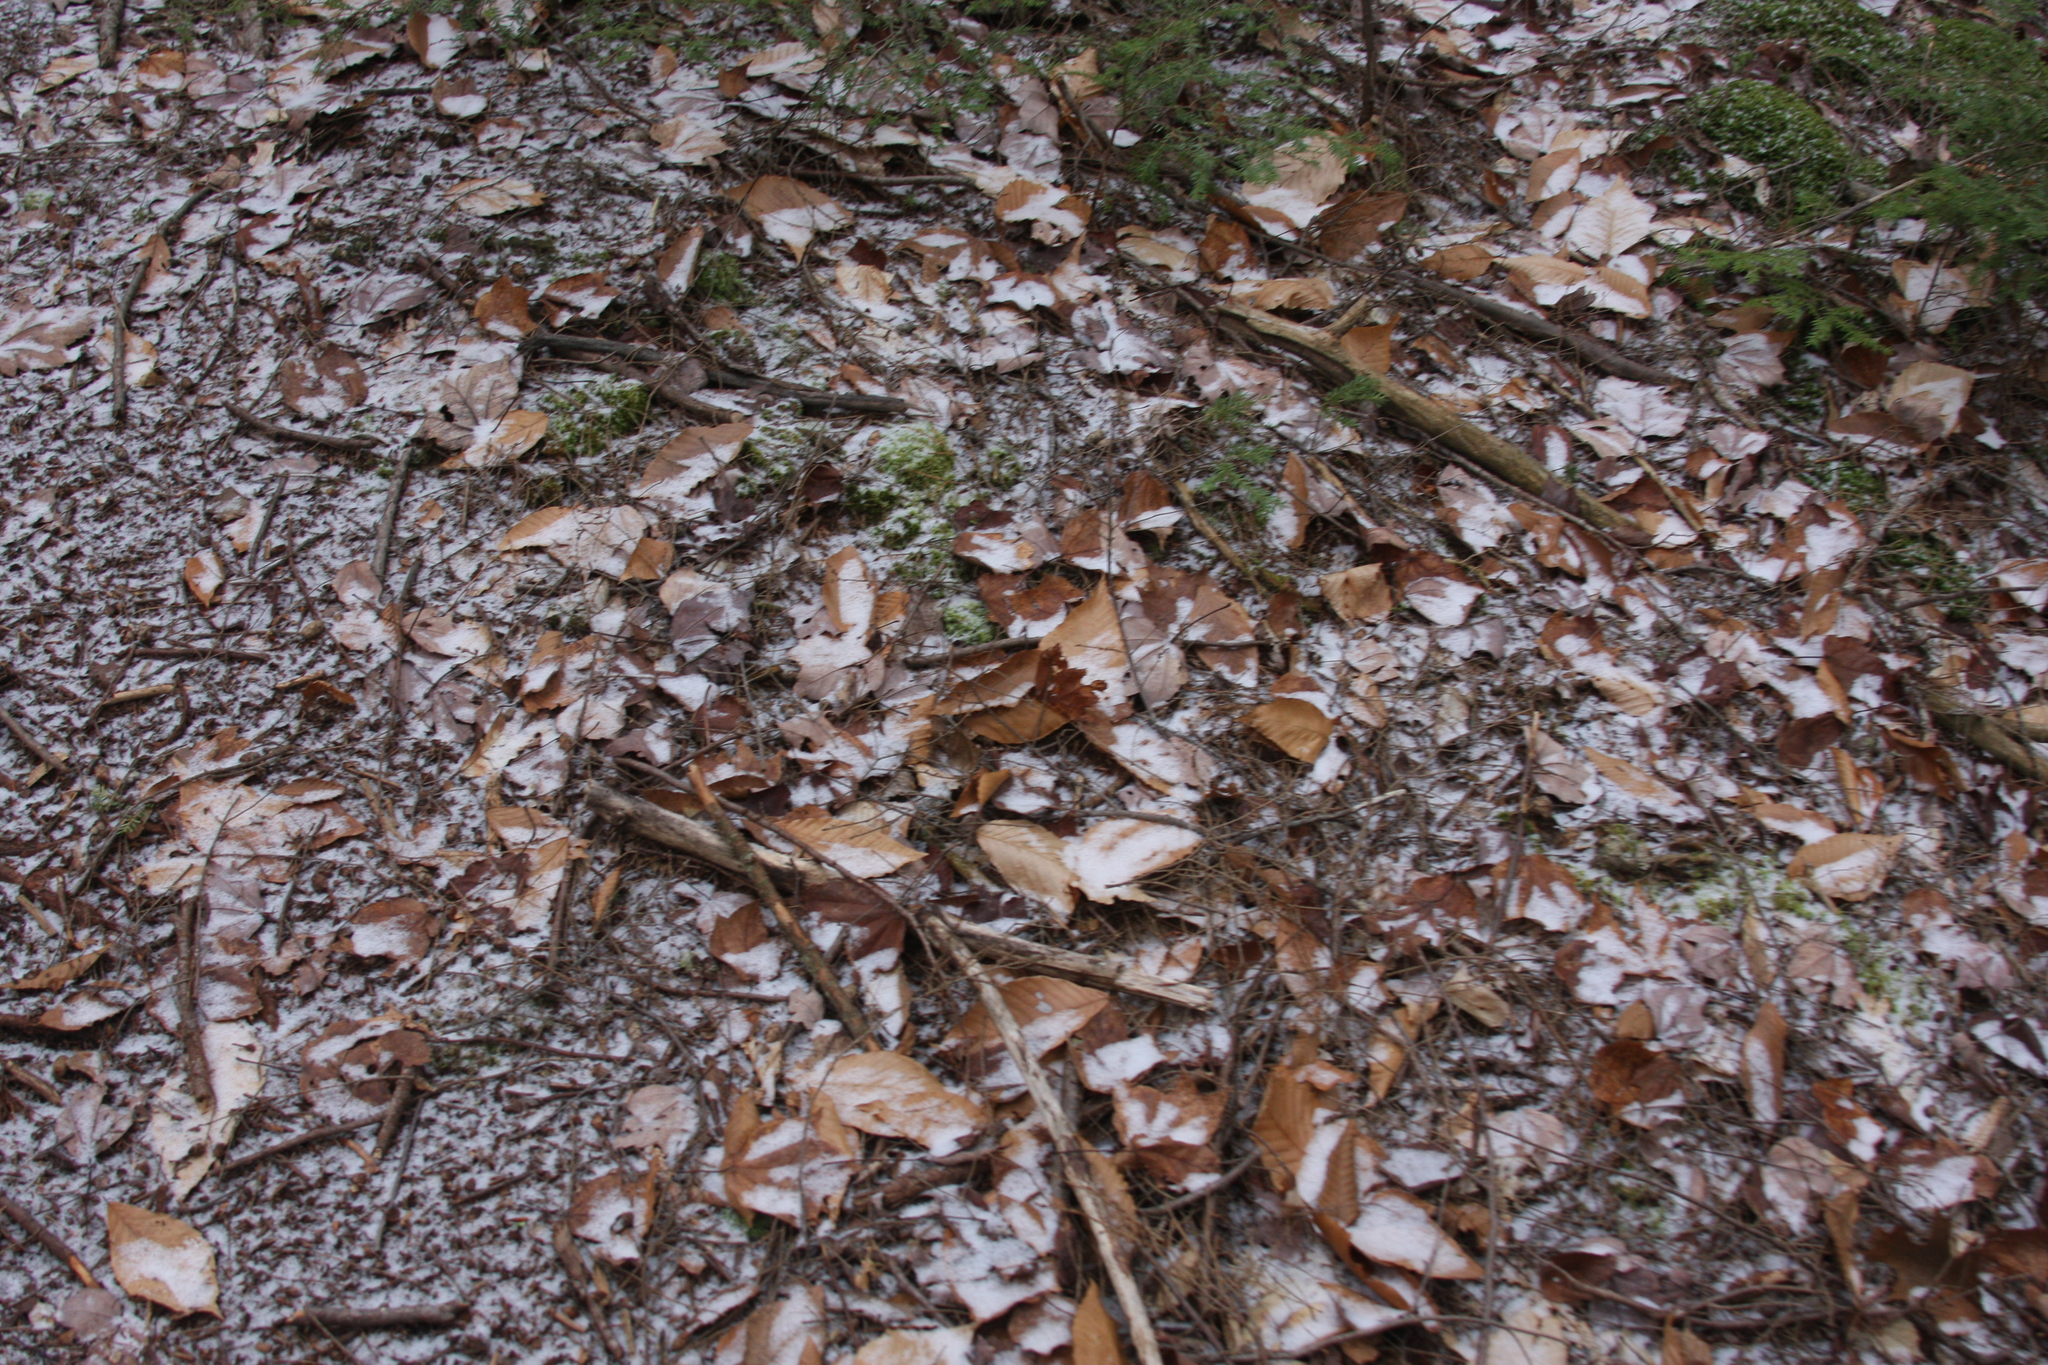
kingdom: Plantae
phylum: Tracheophyta
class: Magnoliopsida
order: Fagales
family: Fagaceae
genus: Fagus
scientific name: Fagus grandifolia
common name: American beech
